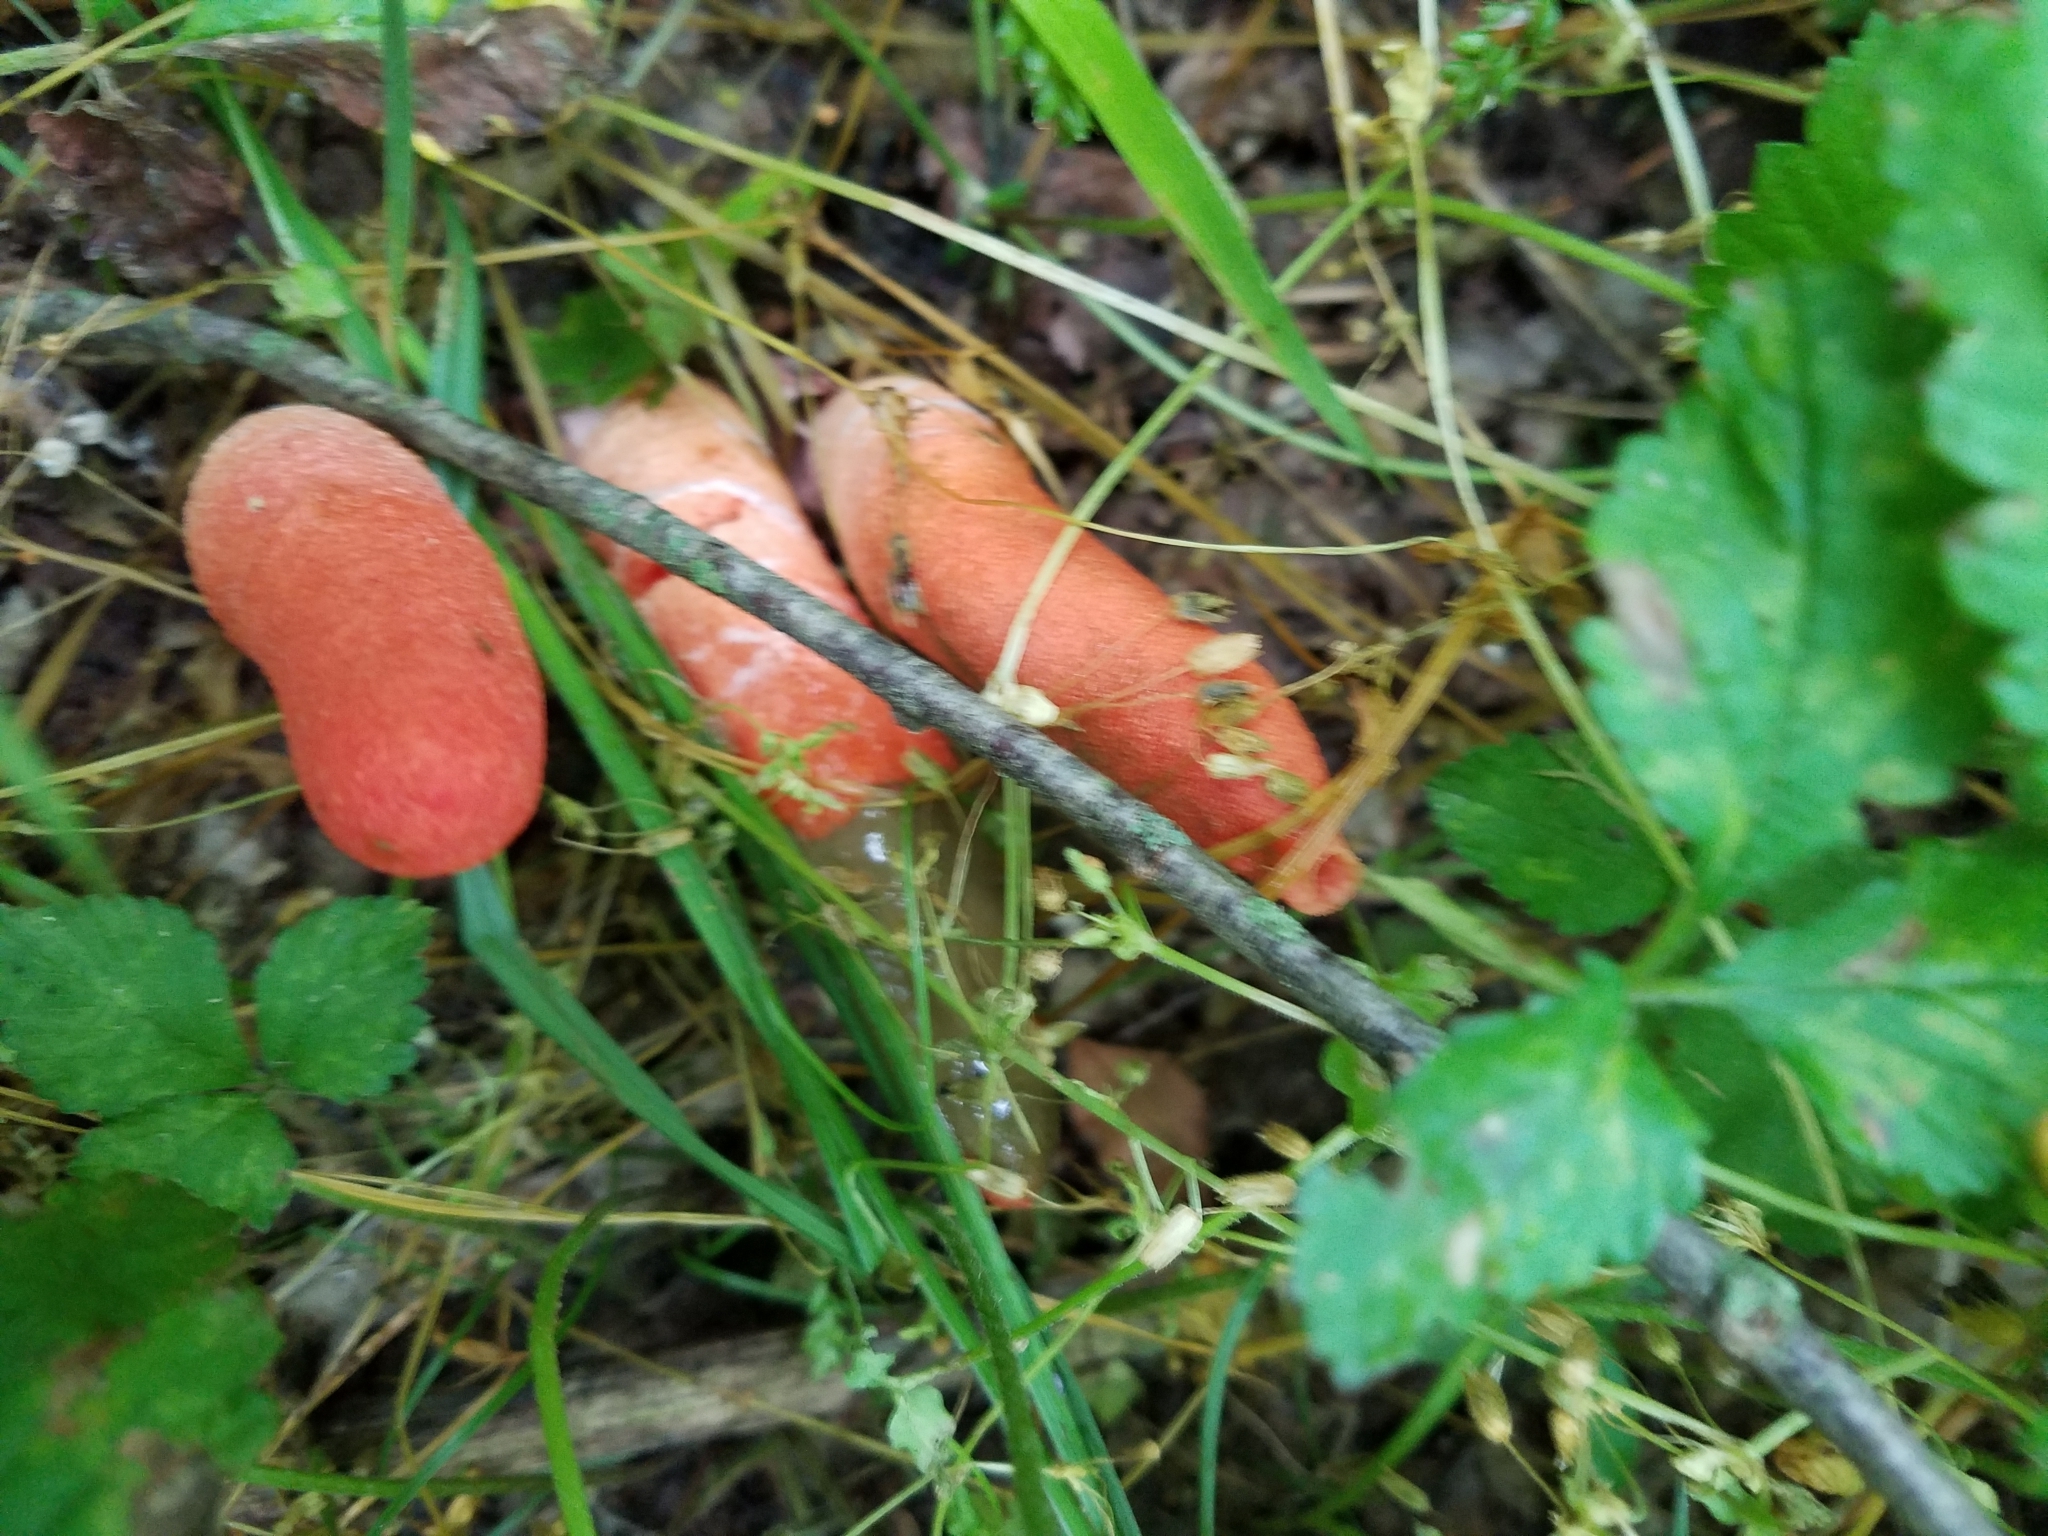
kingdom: Fungi
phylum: Basidiomycota
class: Agaricomycetes
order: Phallales
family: Phallaceae
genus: Mutinus
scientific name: Mutinus elegans
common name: Devil's dipstick
